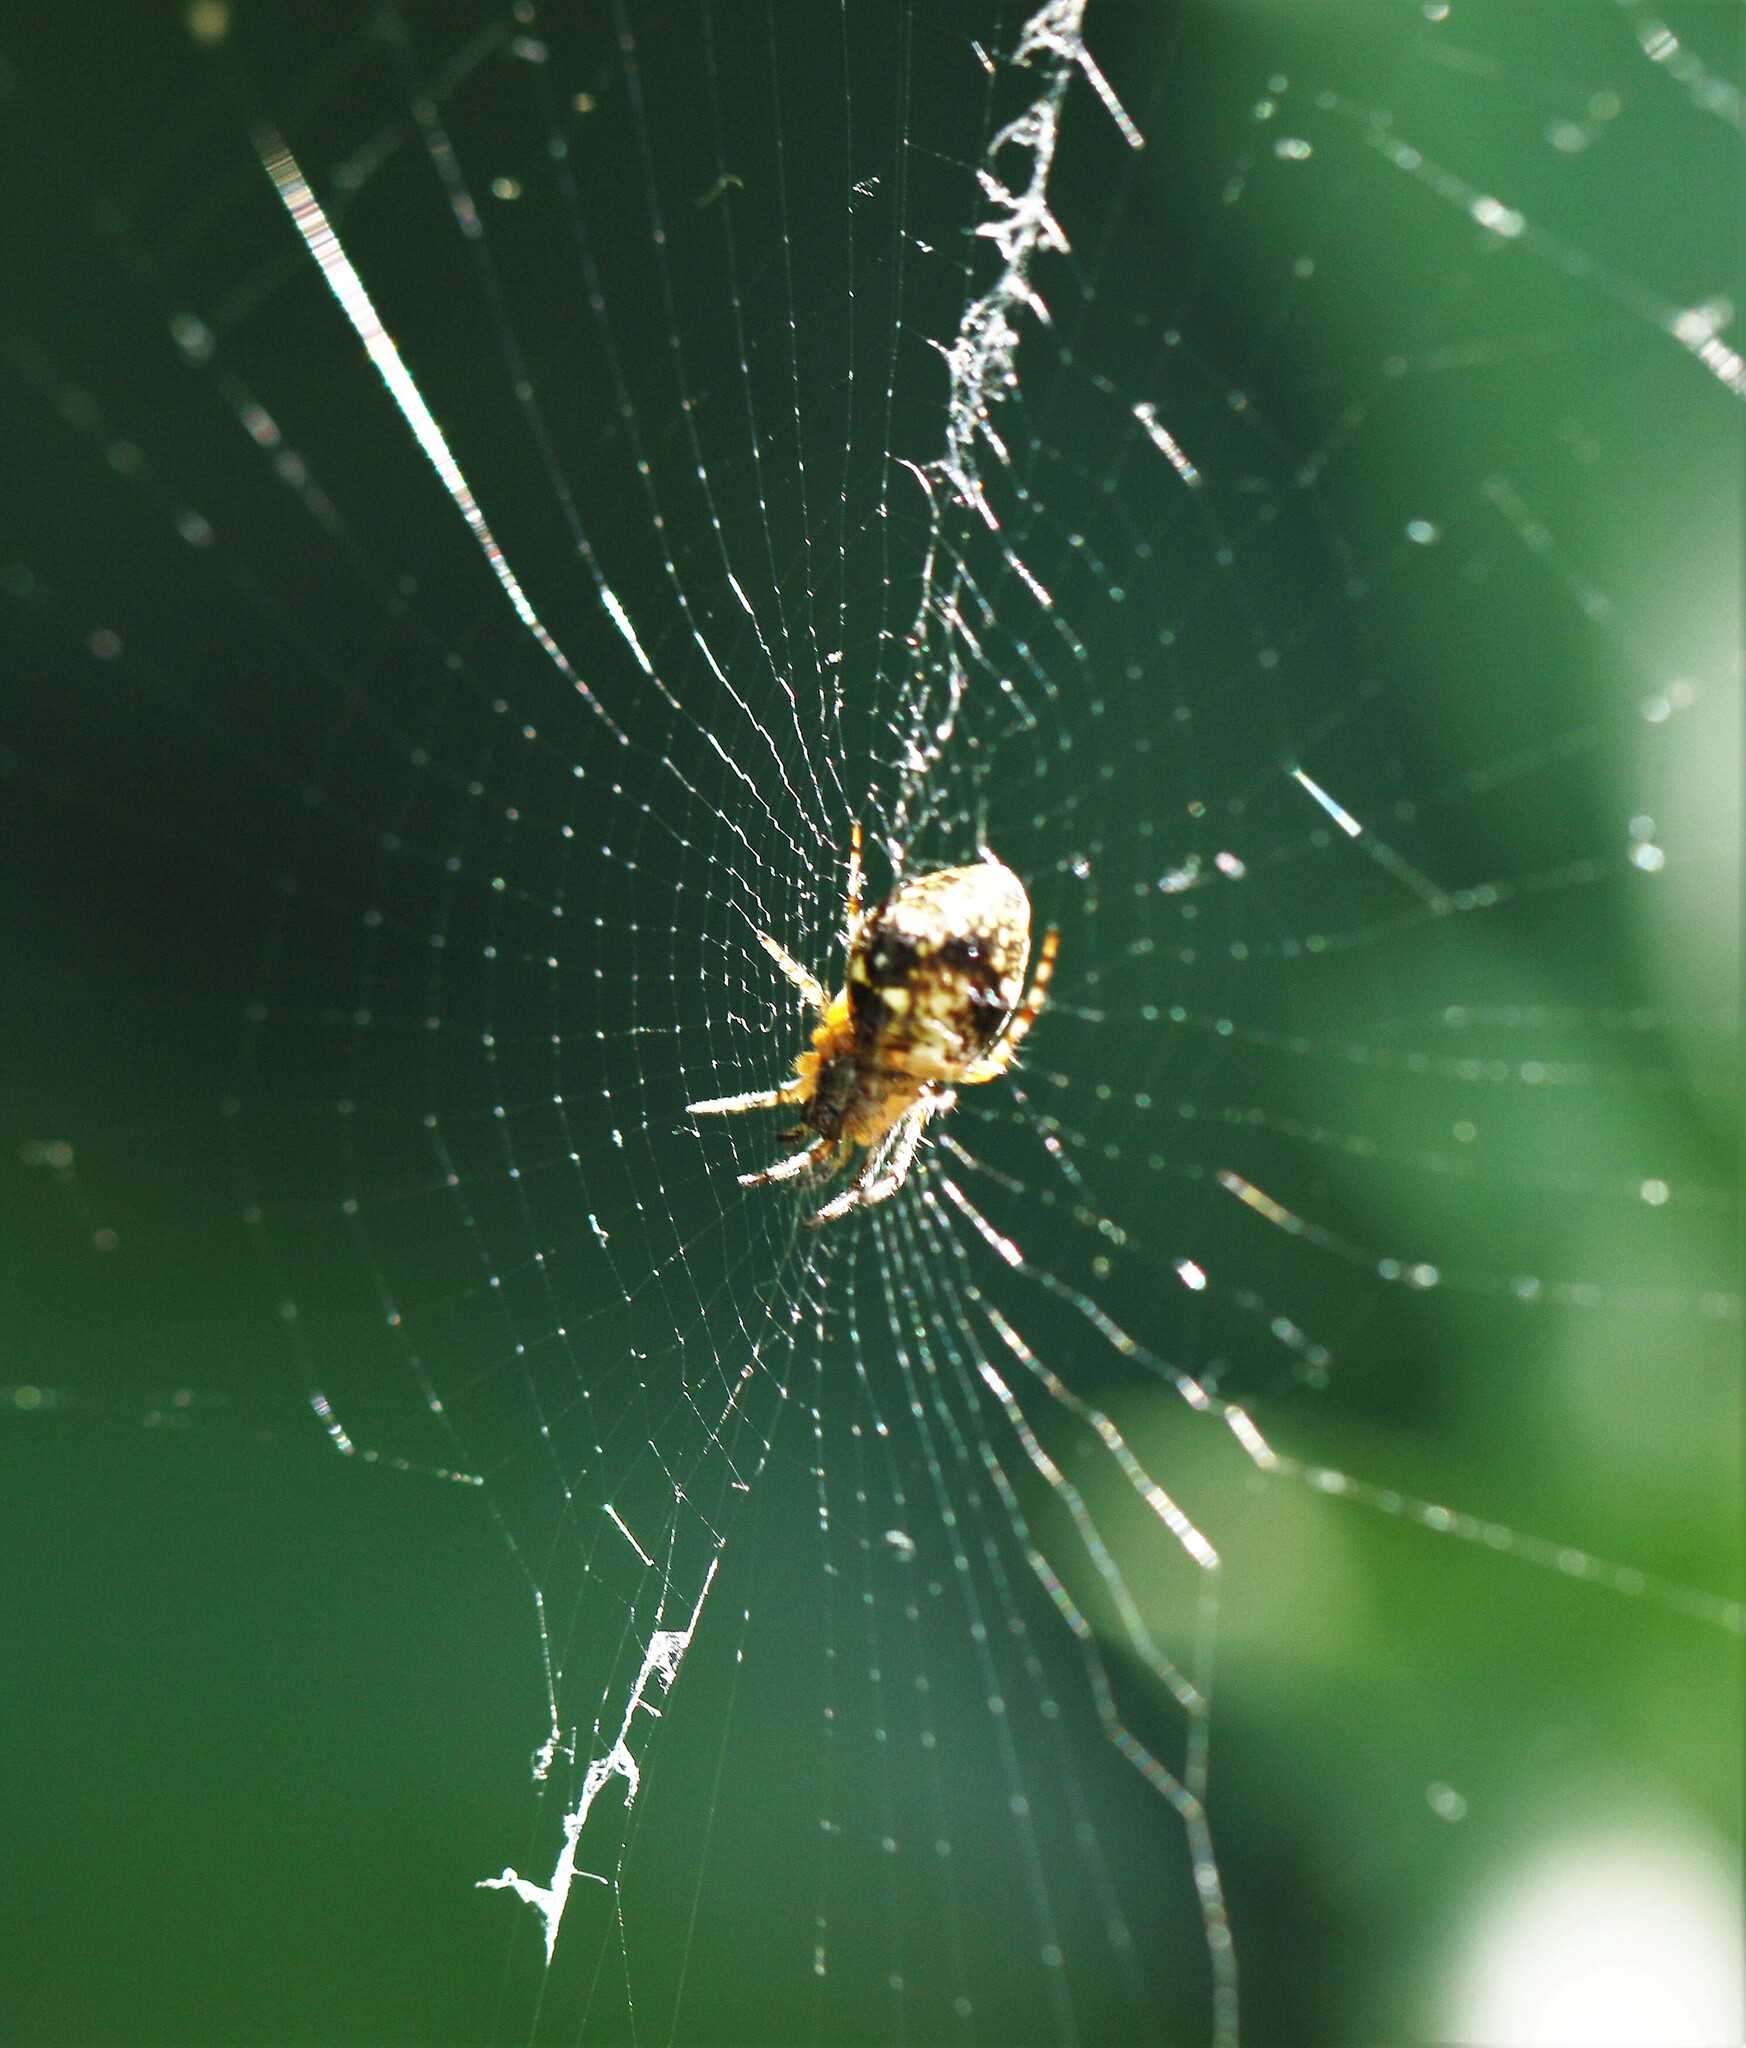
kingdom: Animalia
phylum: Arthropoda
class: Arachnida
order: Araneae
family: Araneidae
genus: Cyclosa
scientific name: Cyclosa conica
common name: Conical trashline orbweaver
